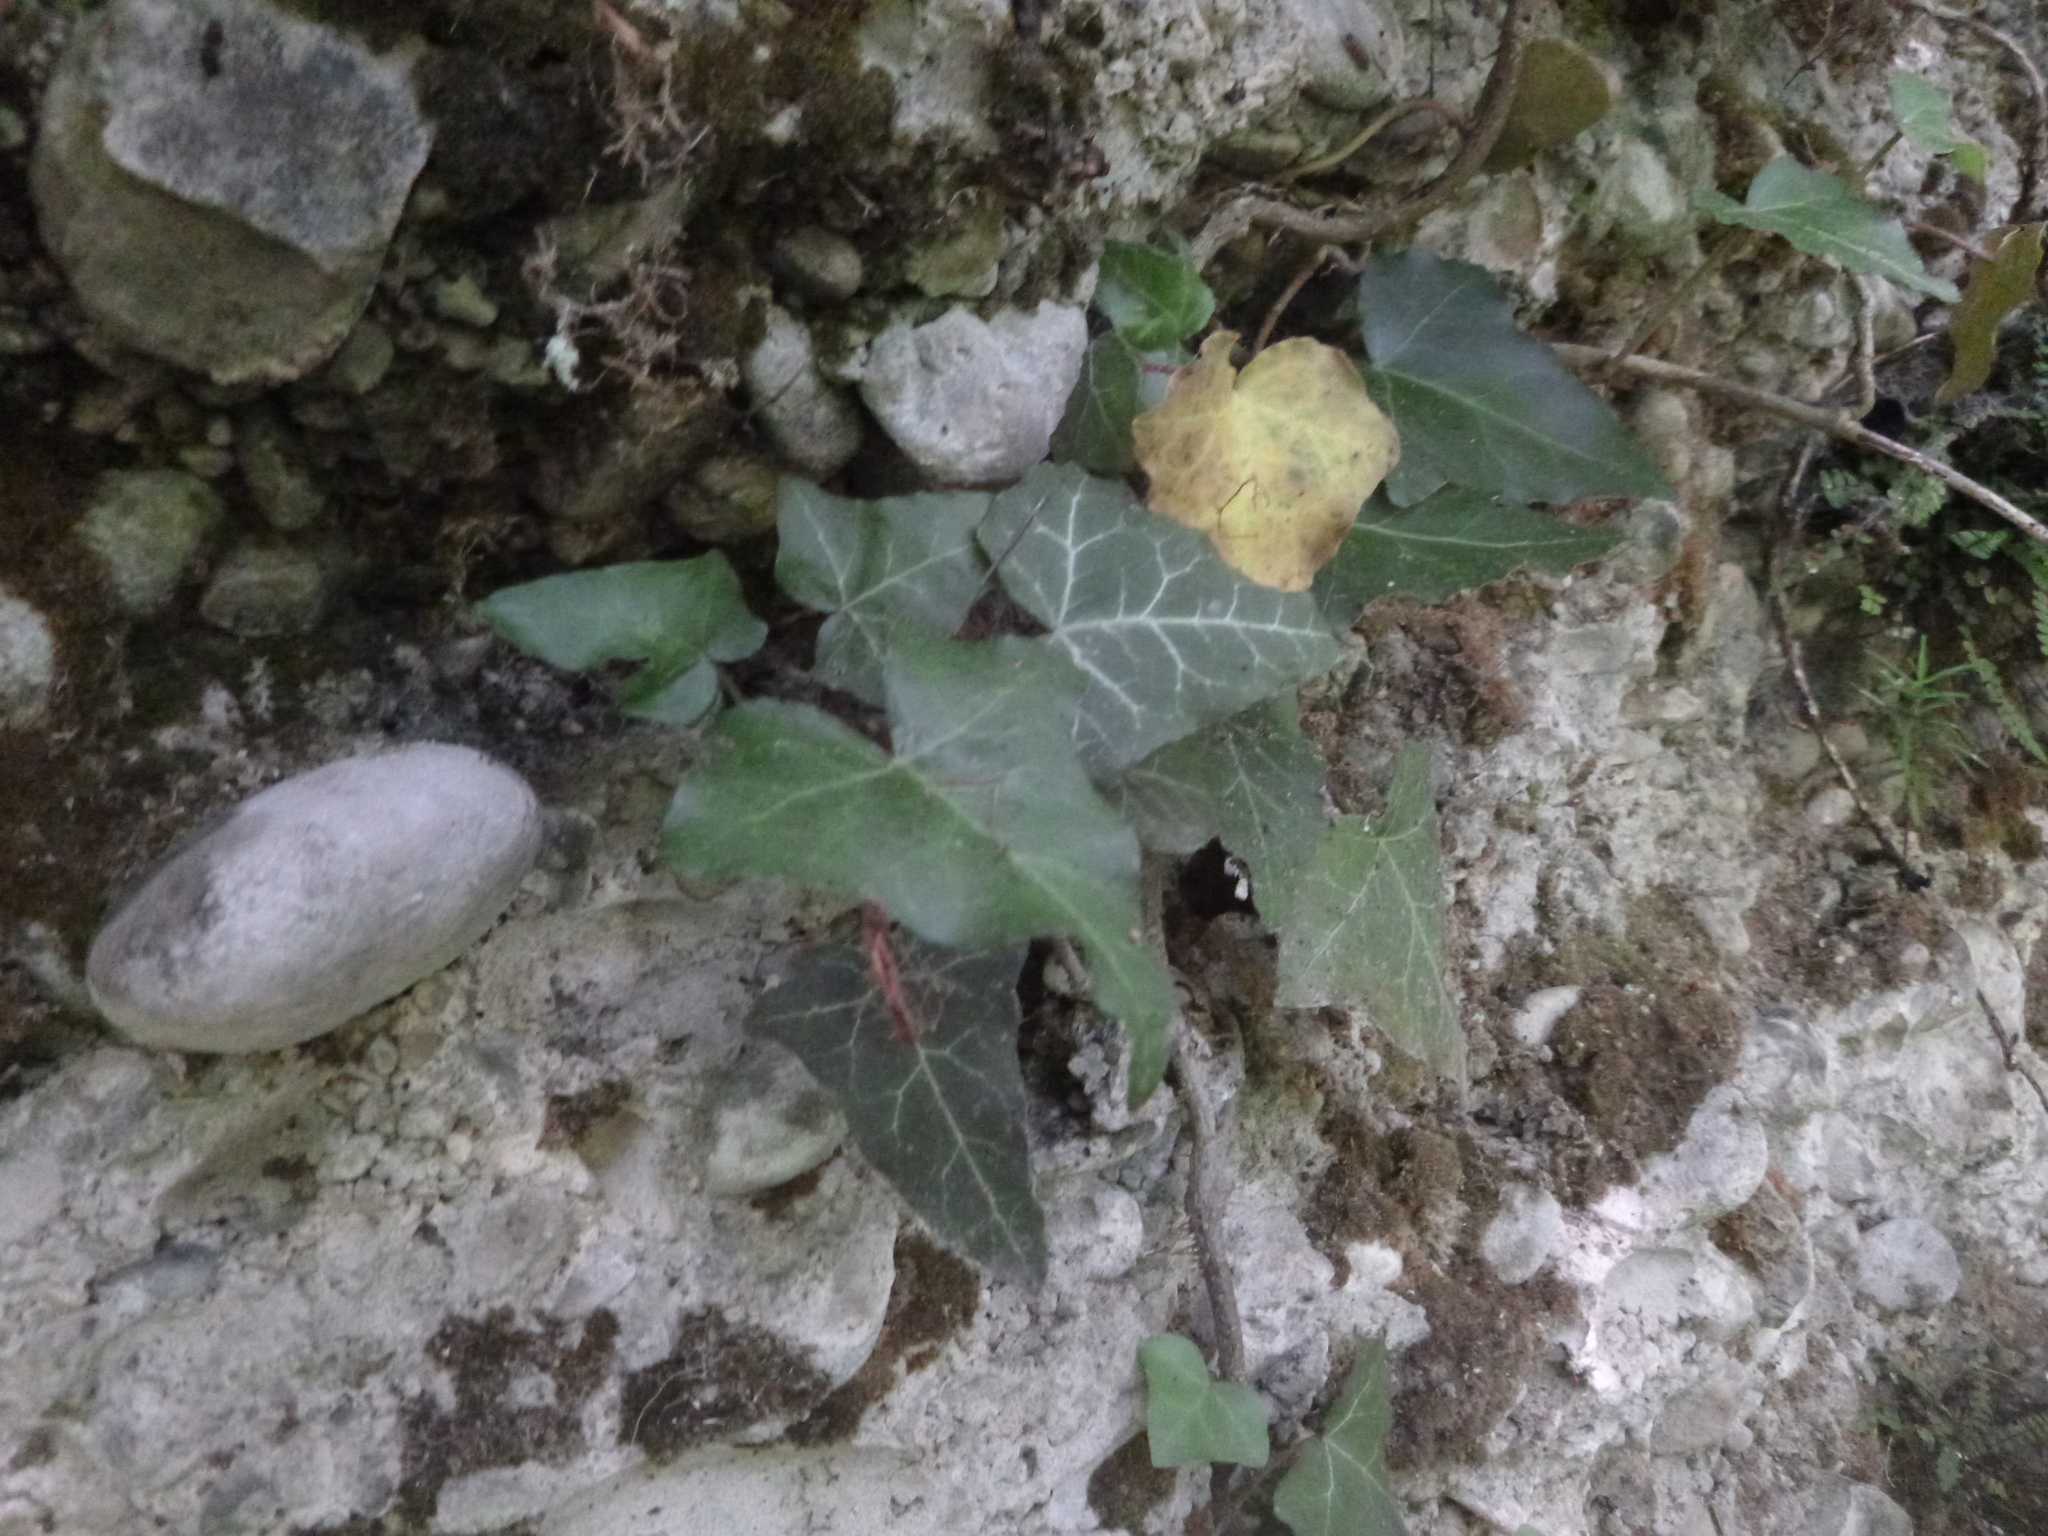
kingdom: Plantae
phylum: Tracheophyta
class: Magnoliopsida
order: Apiales
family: Araliaceae
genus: Hedera
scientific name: Hedera helix
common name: Ivy
